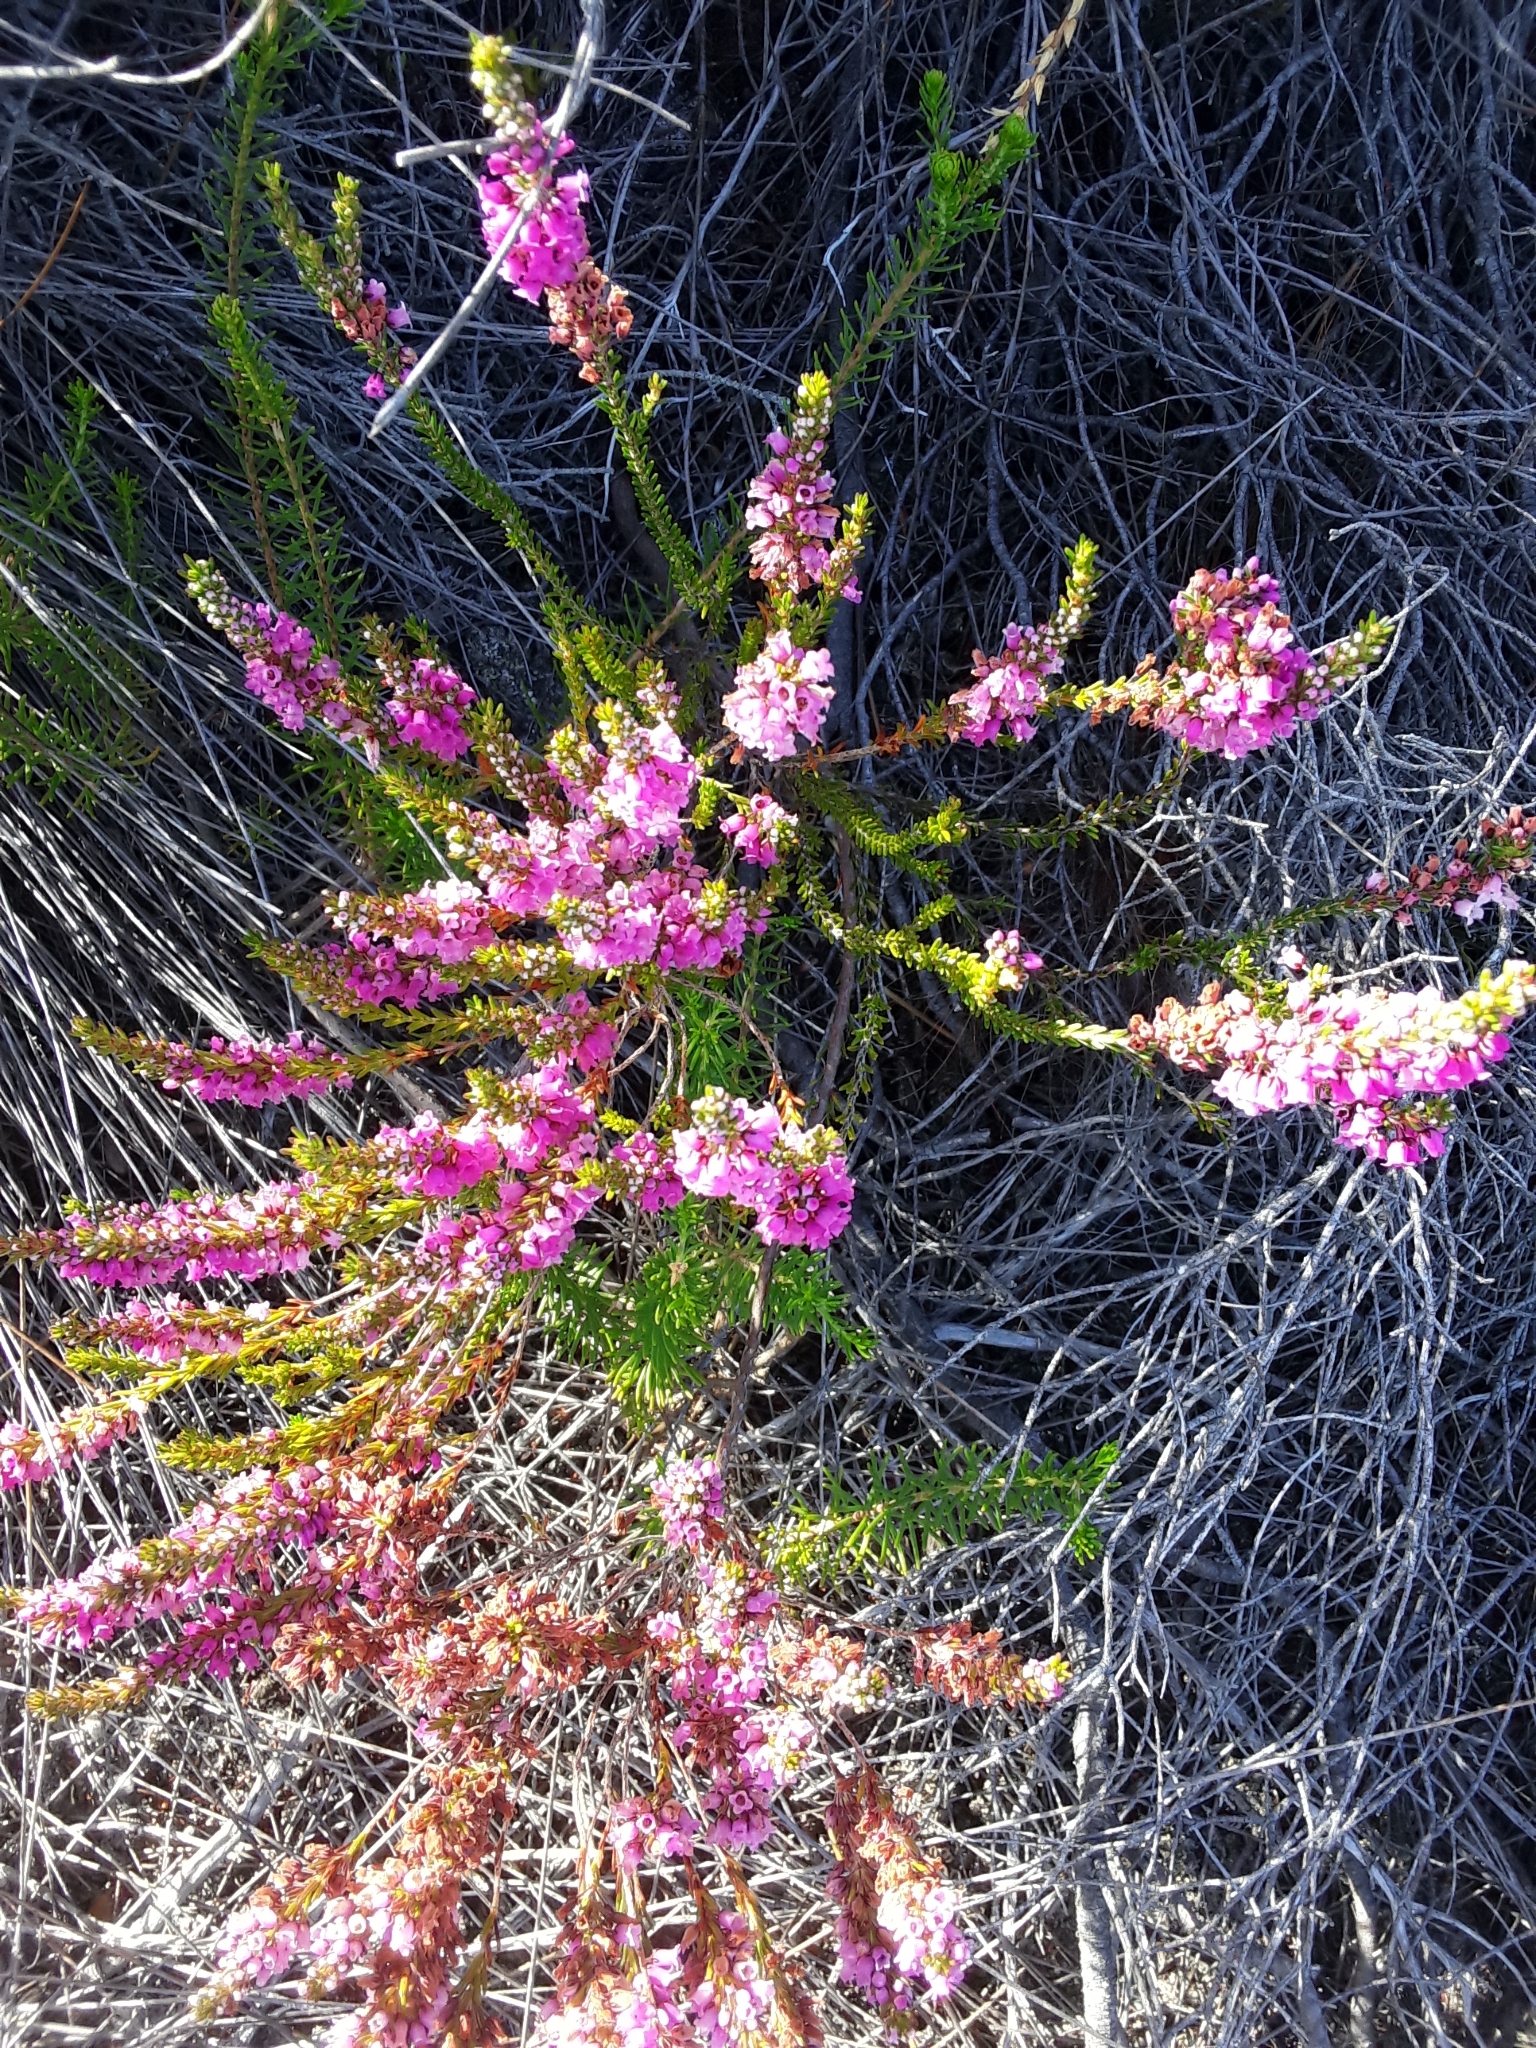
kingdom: Plantae
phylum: Tracheophyta
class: Magnoliopsida
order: Ericales
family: Ericaceae
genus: Erica
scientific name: Erica pulchella
